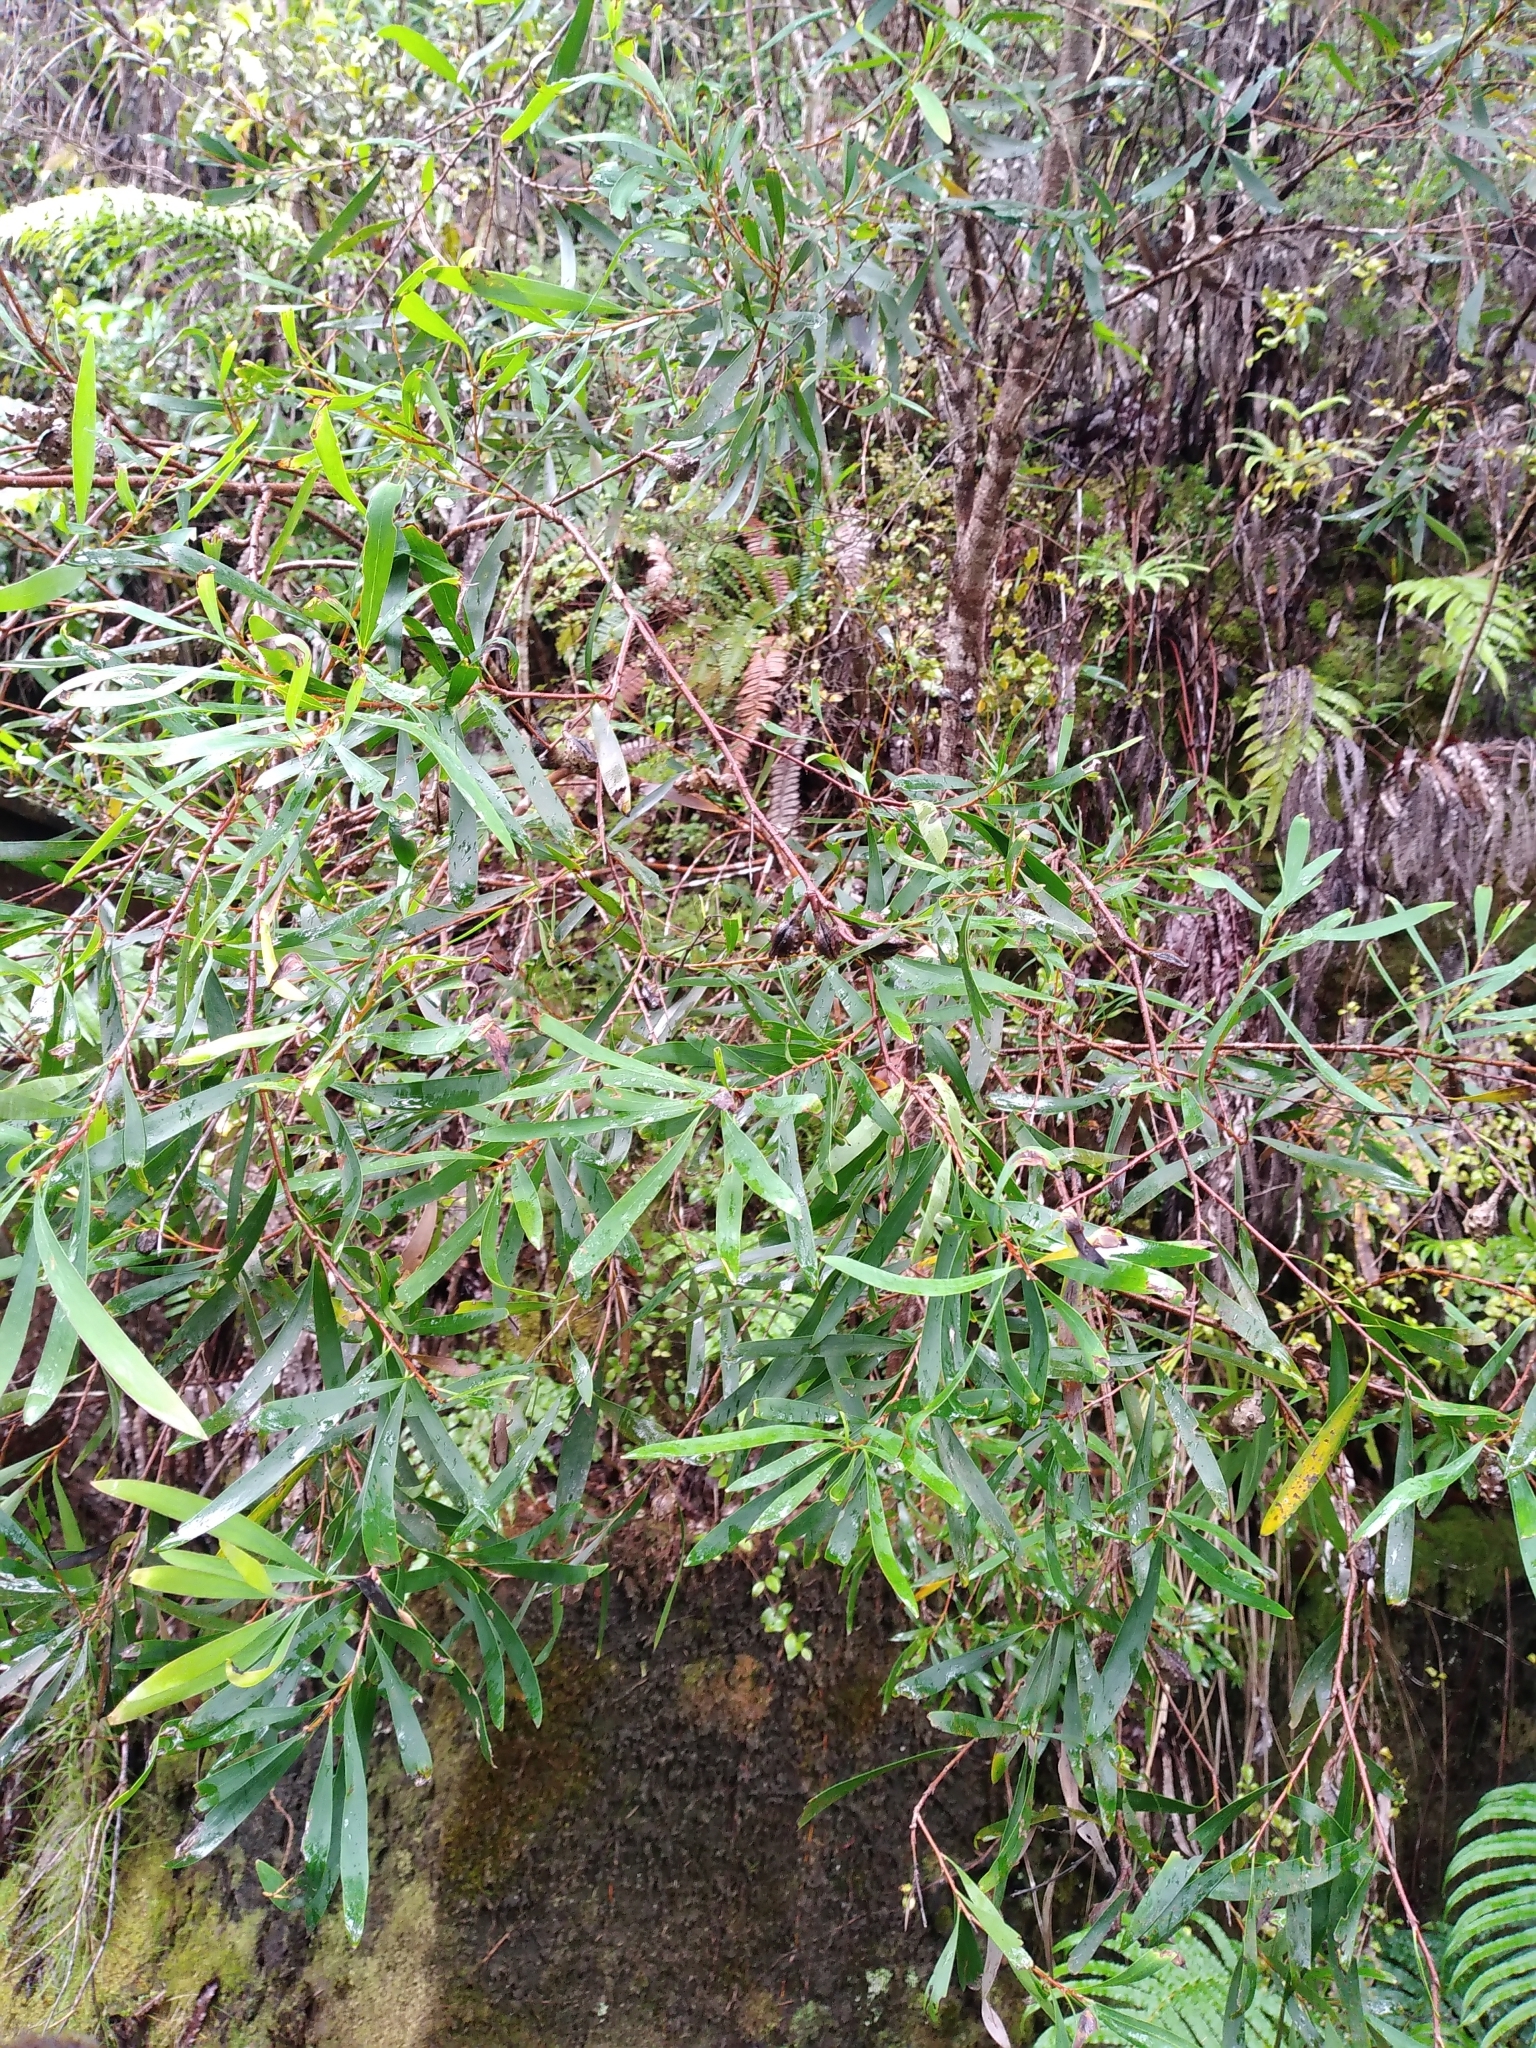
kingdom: Plantae
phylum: Tracheophyta
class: Magnoliopsida
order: Proteales
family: Proteaceae
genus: Hakea
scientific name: Hakea salicifolia
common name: Willow hakea
